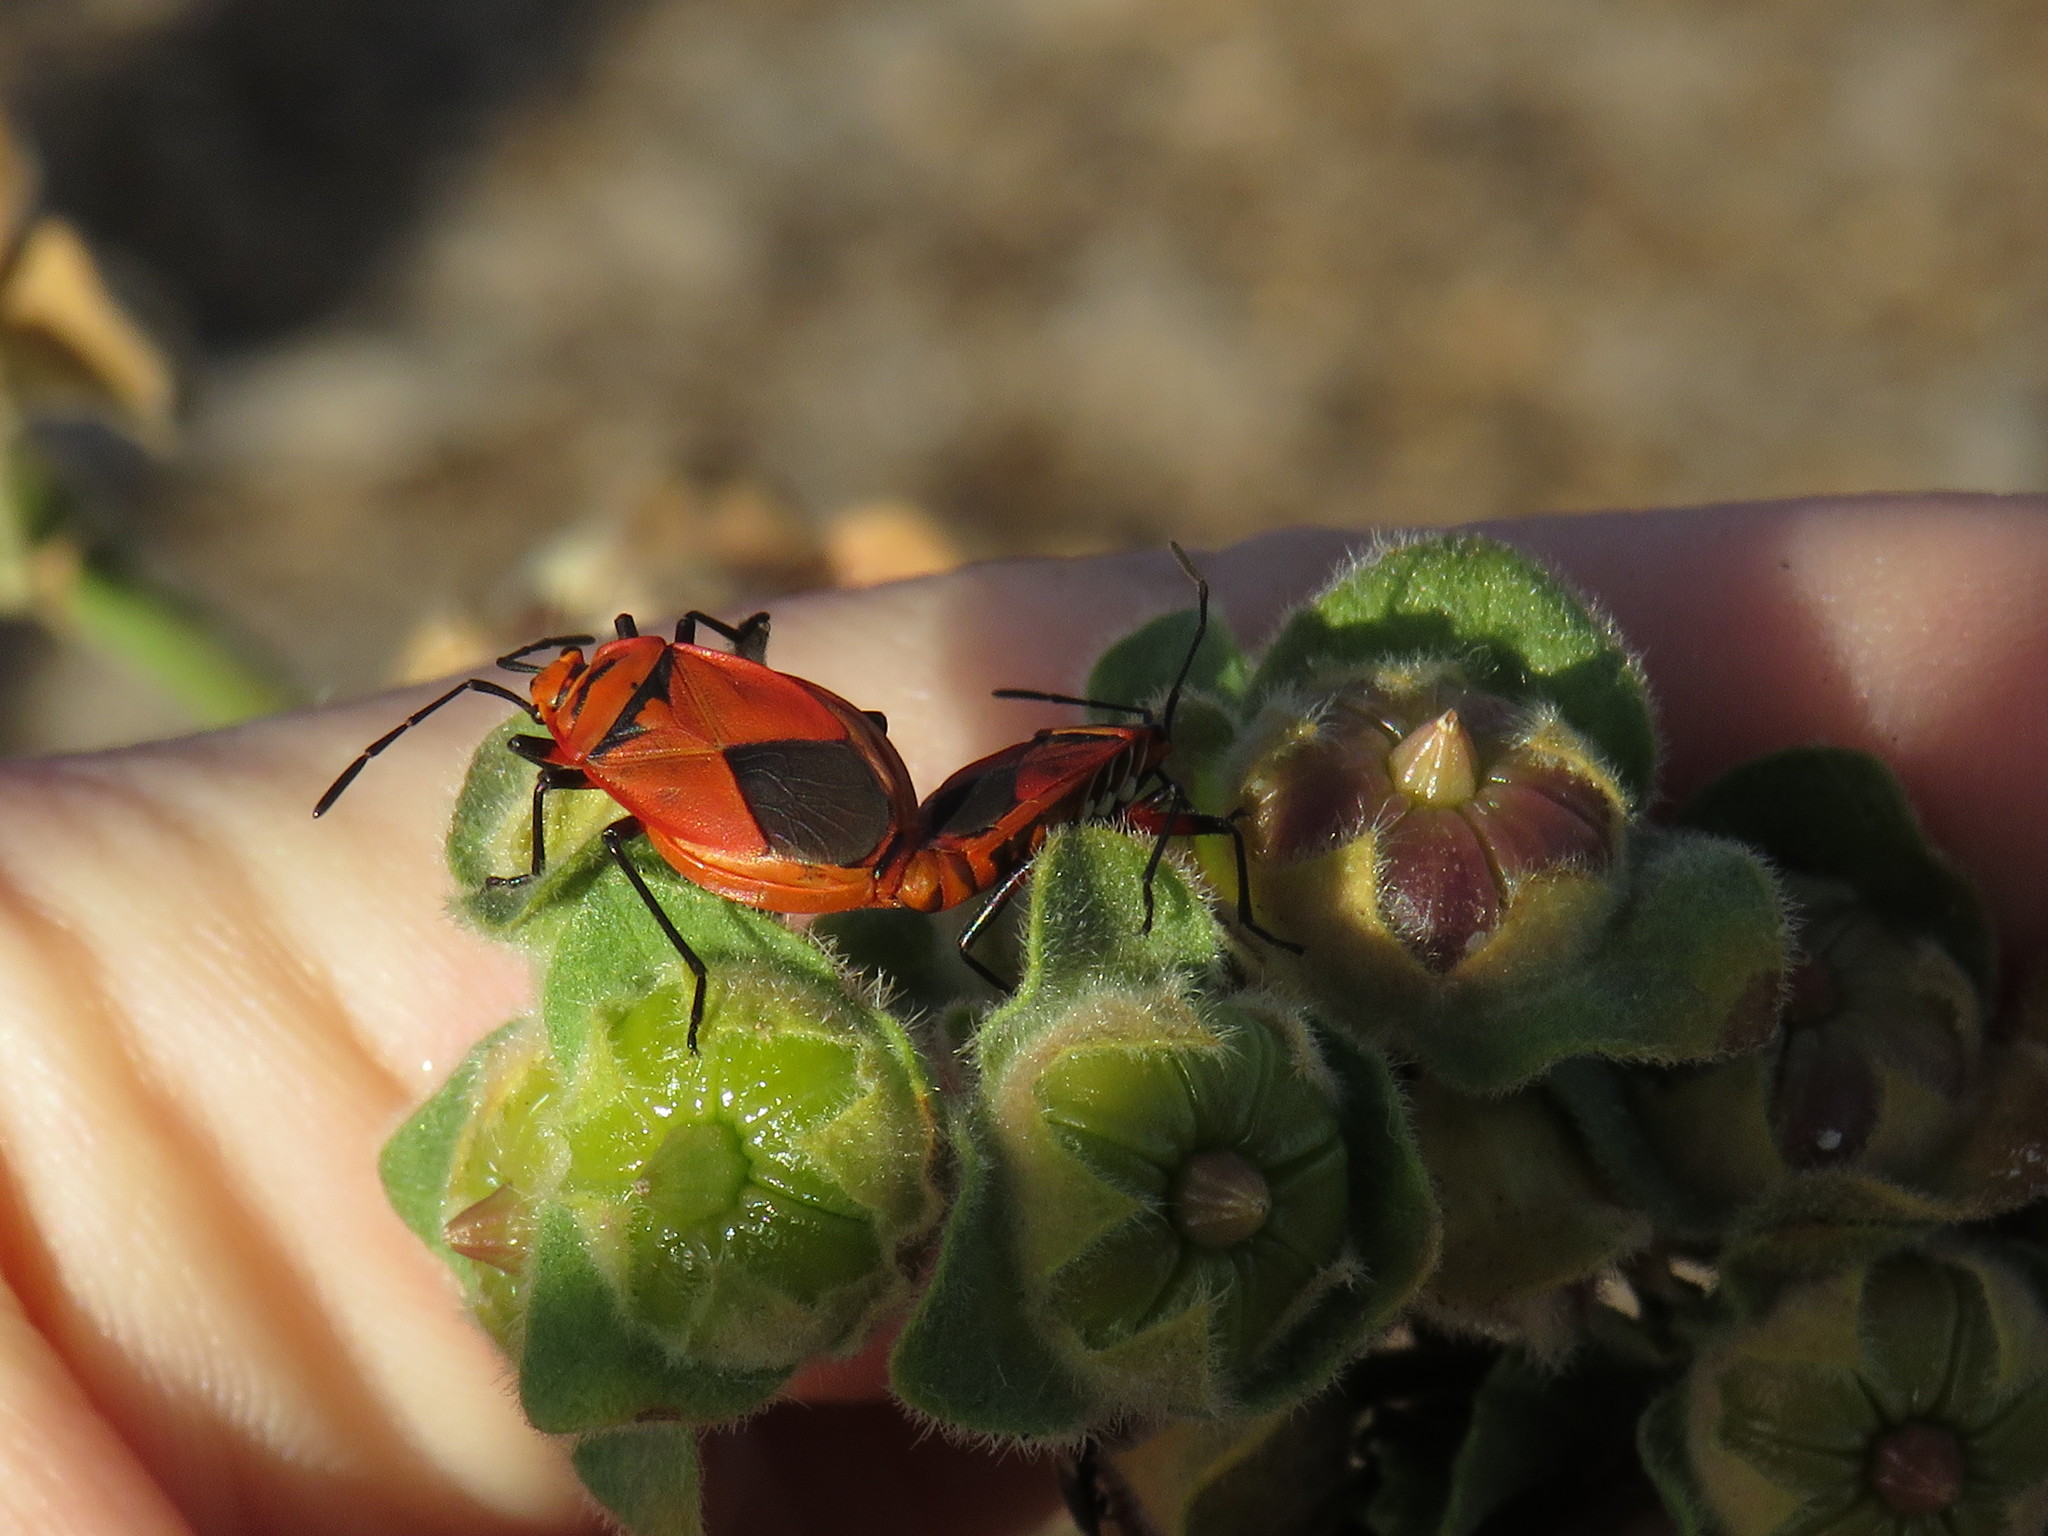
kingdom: Animalia
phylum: Arthropoda
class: Insecta
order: Hemiptera
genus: Cenaeus
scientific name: Cenaeus
